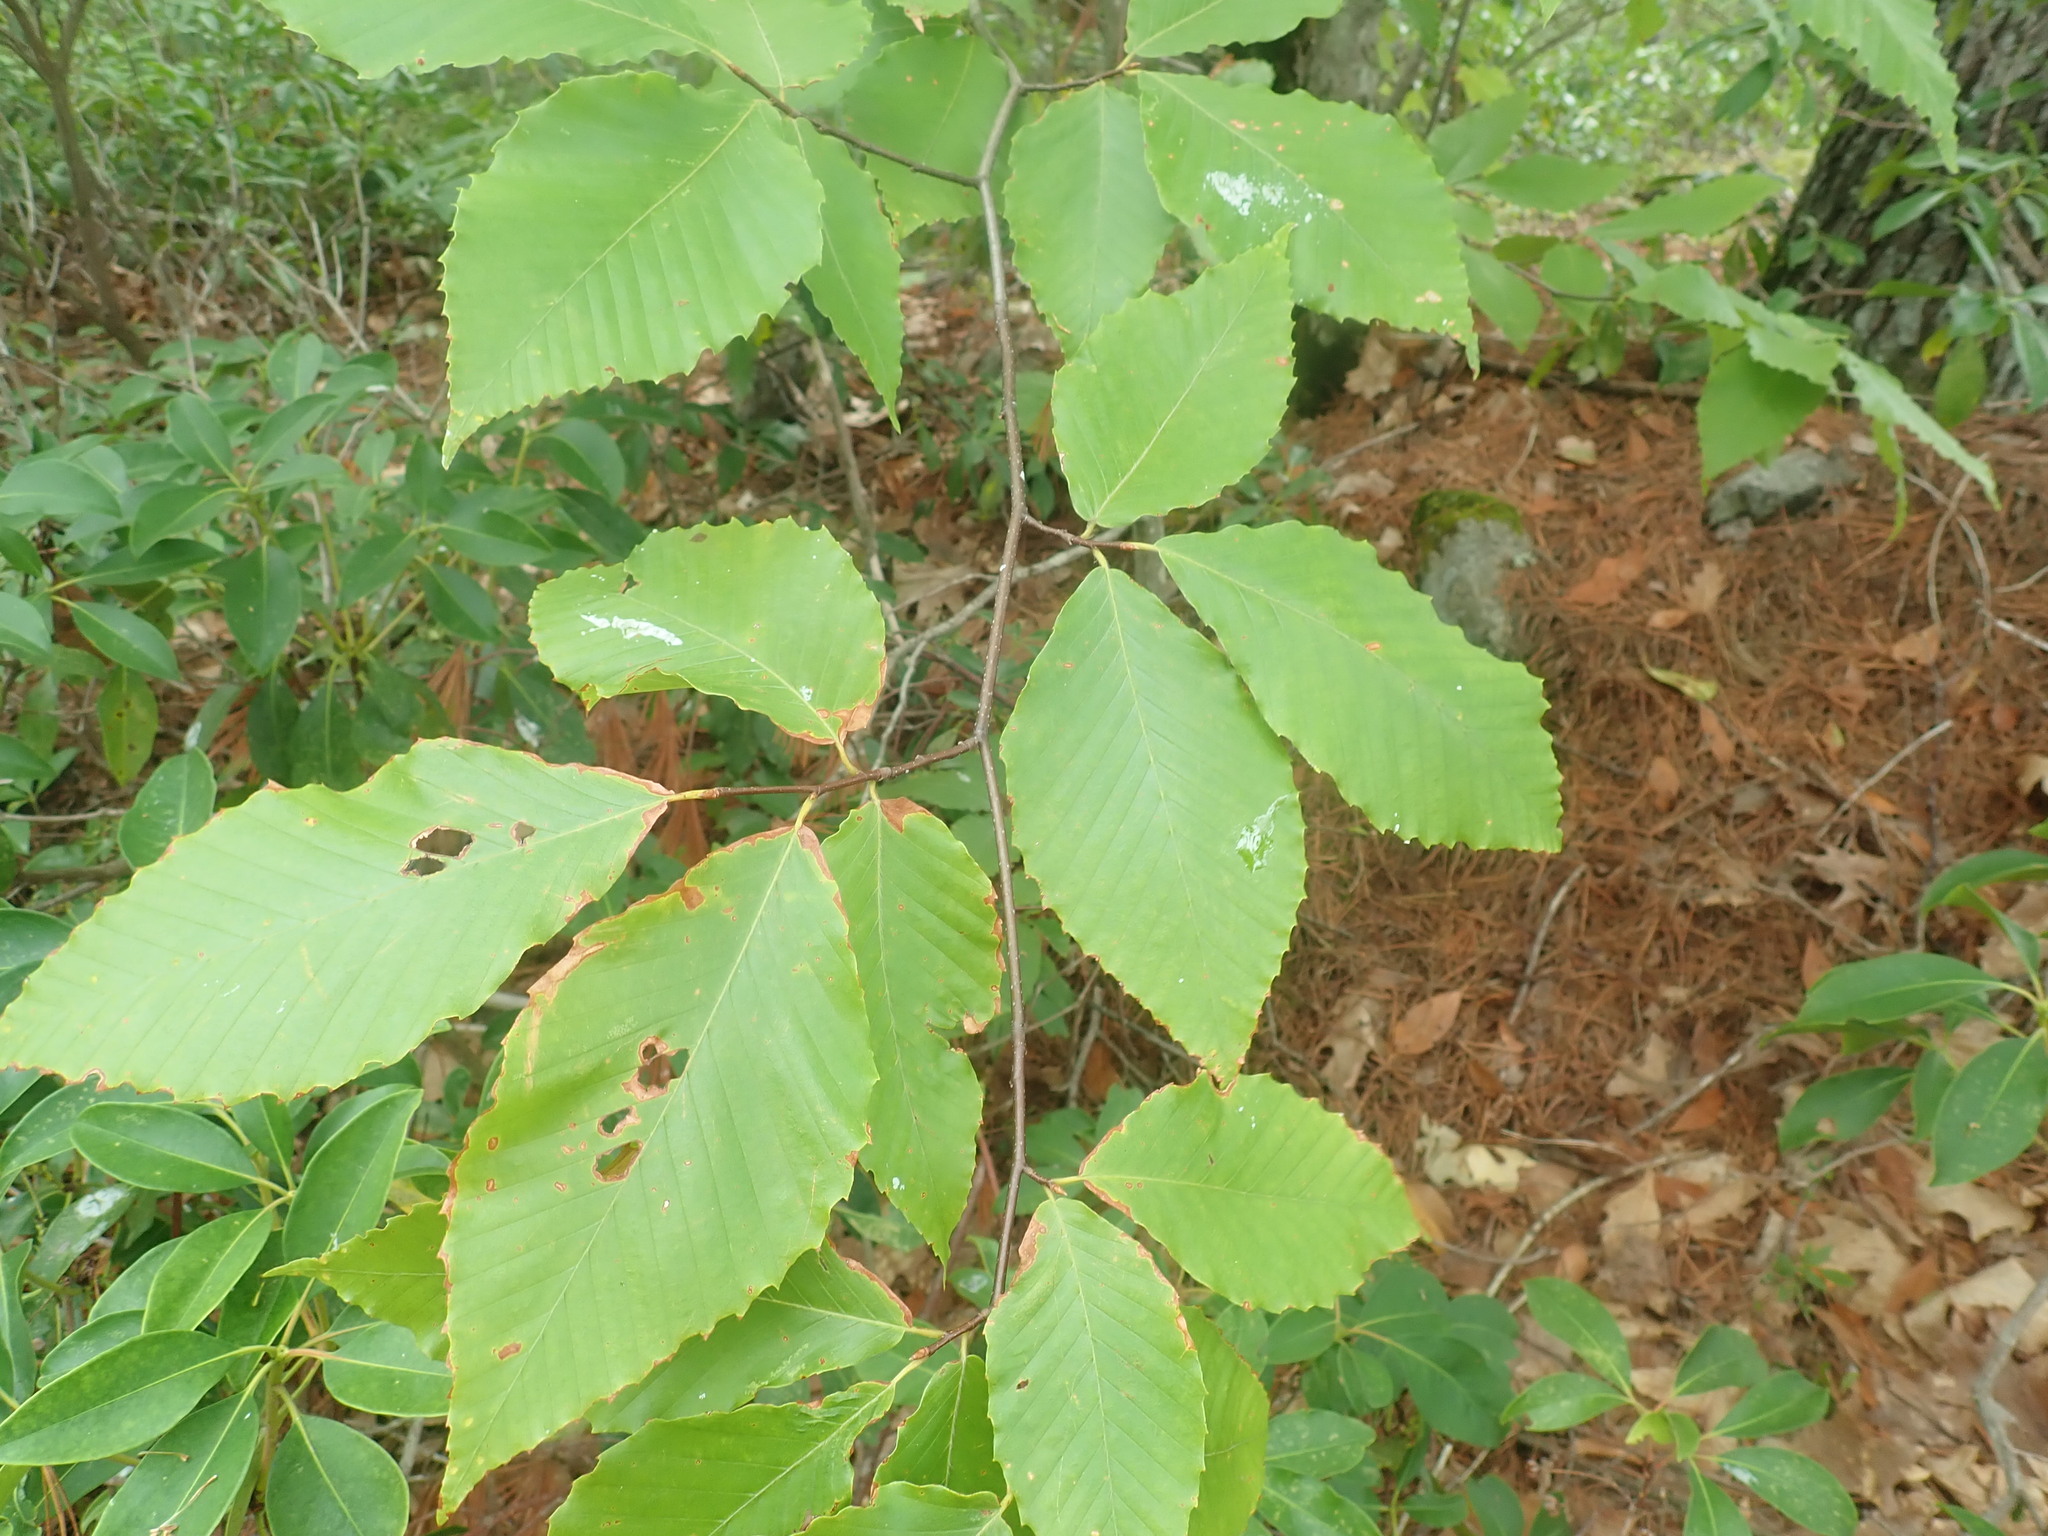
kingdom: Plantae
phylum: Tracheophyta
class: Magnoliopsida
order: Fagales
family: Fagaceae
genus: Fagus
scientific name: Fagus grandifolia
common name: American beech
